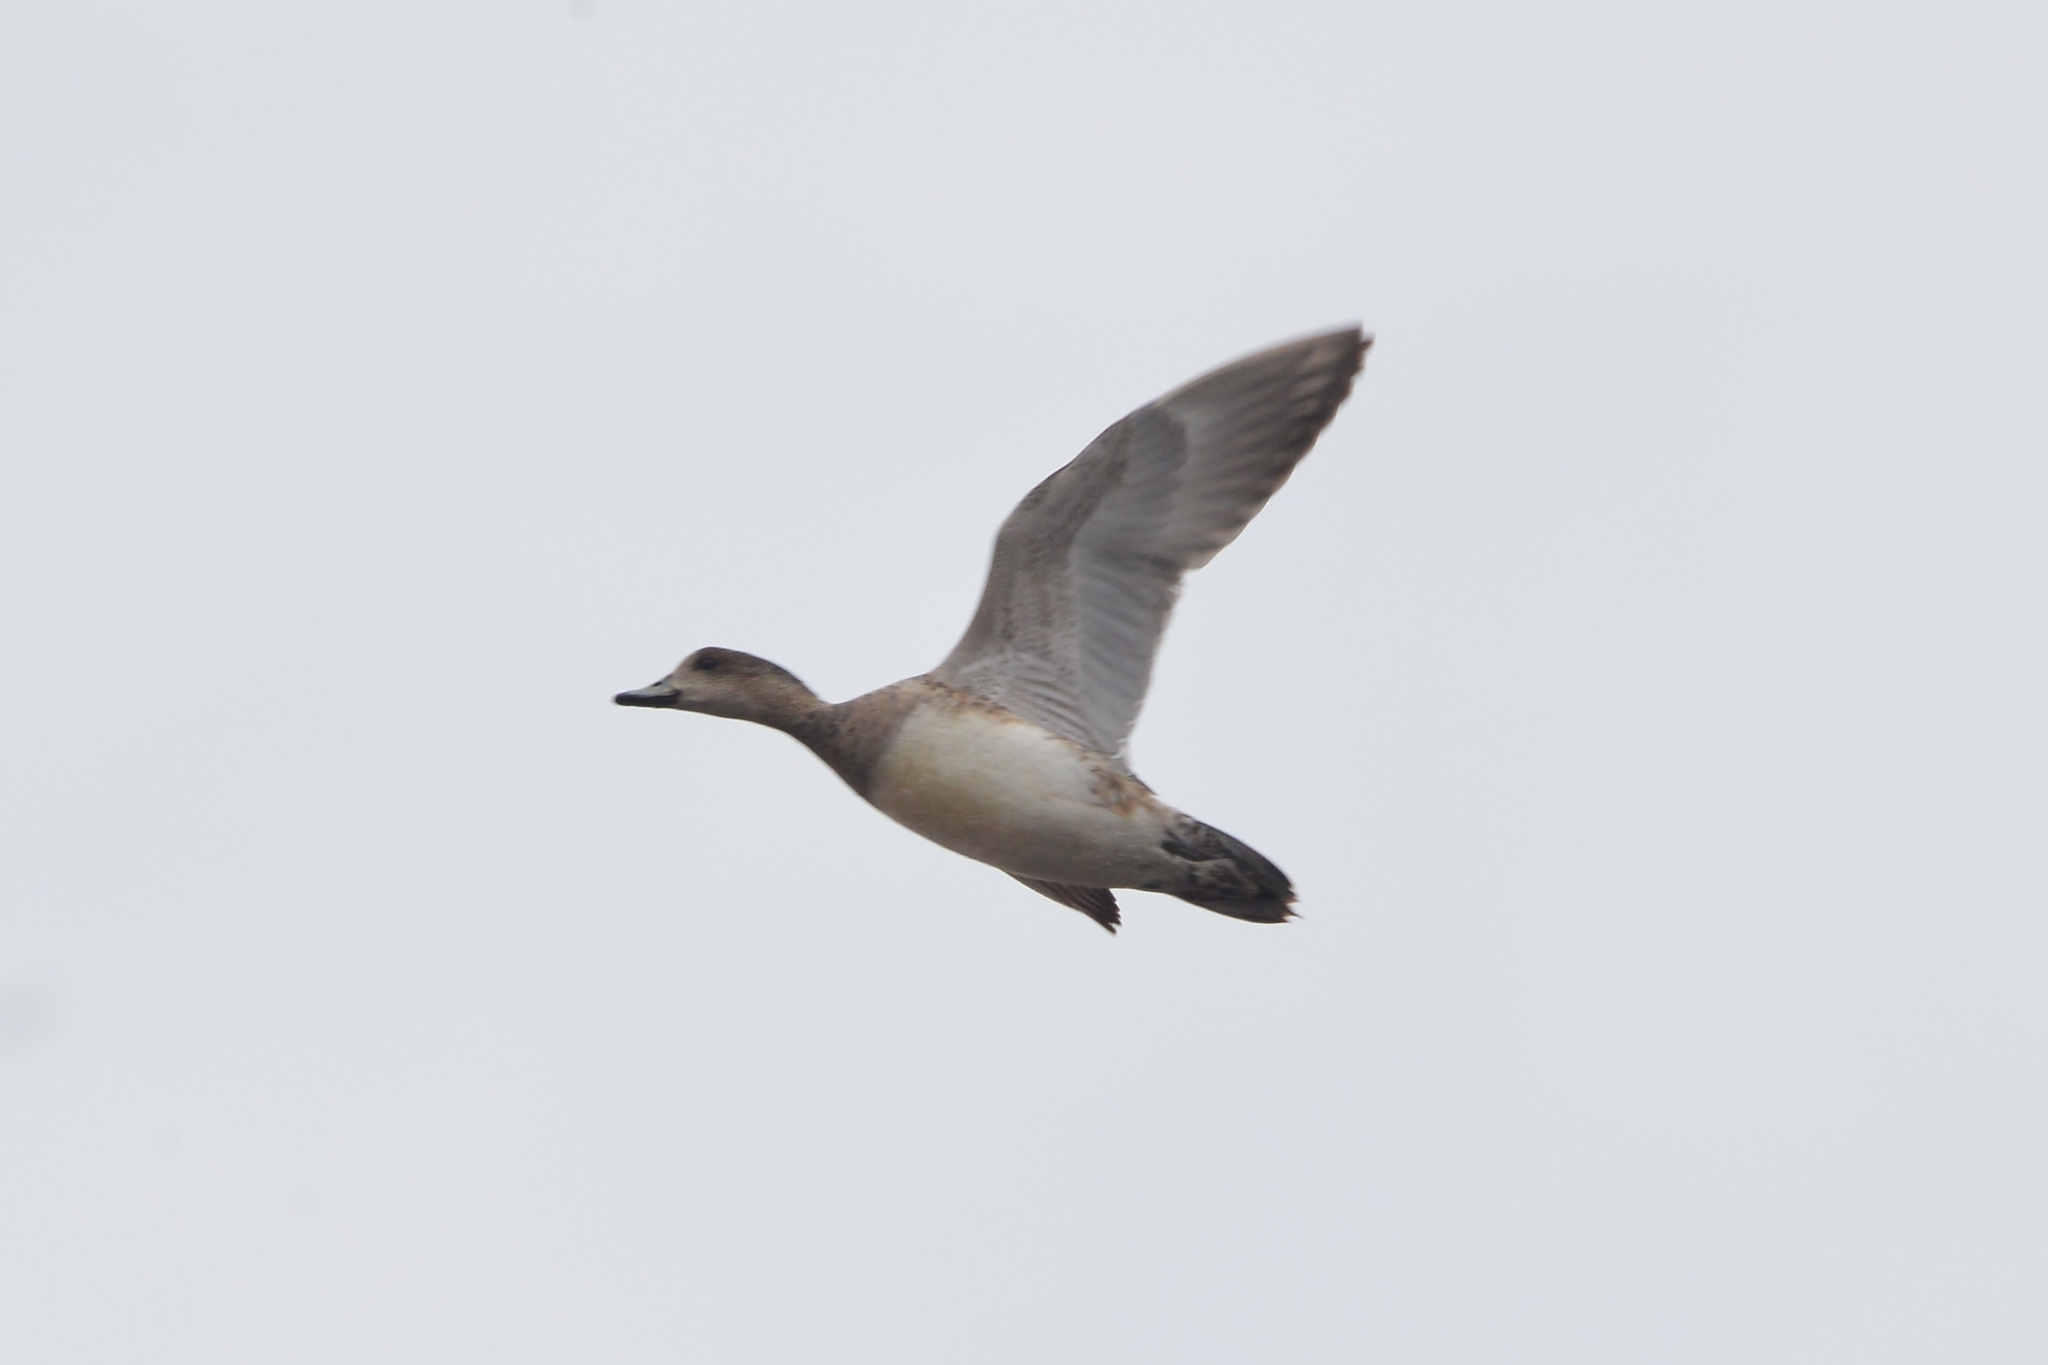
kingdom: Animalia
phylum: Chordata
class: Aves
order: Anseriformes
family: Anatidae
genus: Mareca
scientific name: Mareca penelope
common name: Eurasian wigeon
